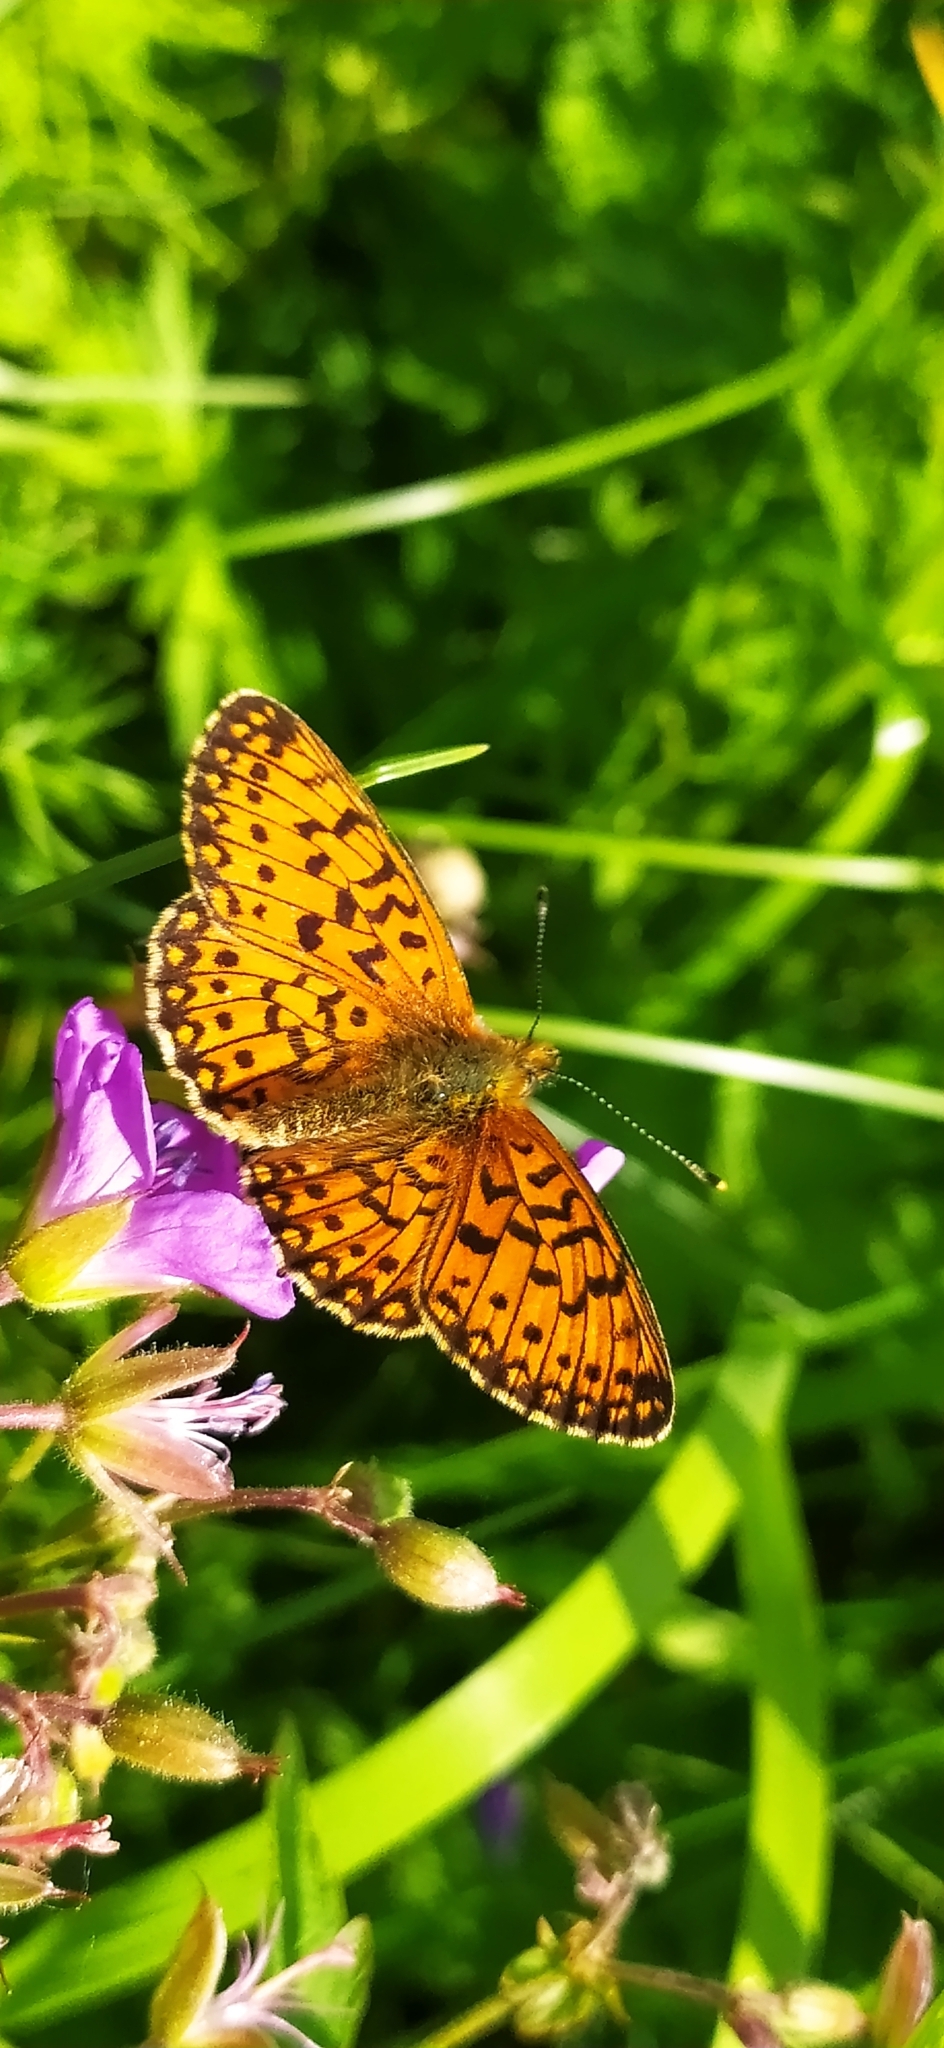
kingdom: Animalia
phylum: Arthropoda
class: Insecta
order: Lepidoptera
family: Nymphalidae
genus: Boloria
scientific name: Boloria selene
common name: Small pearl-bordered fritillary
